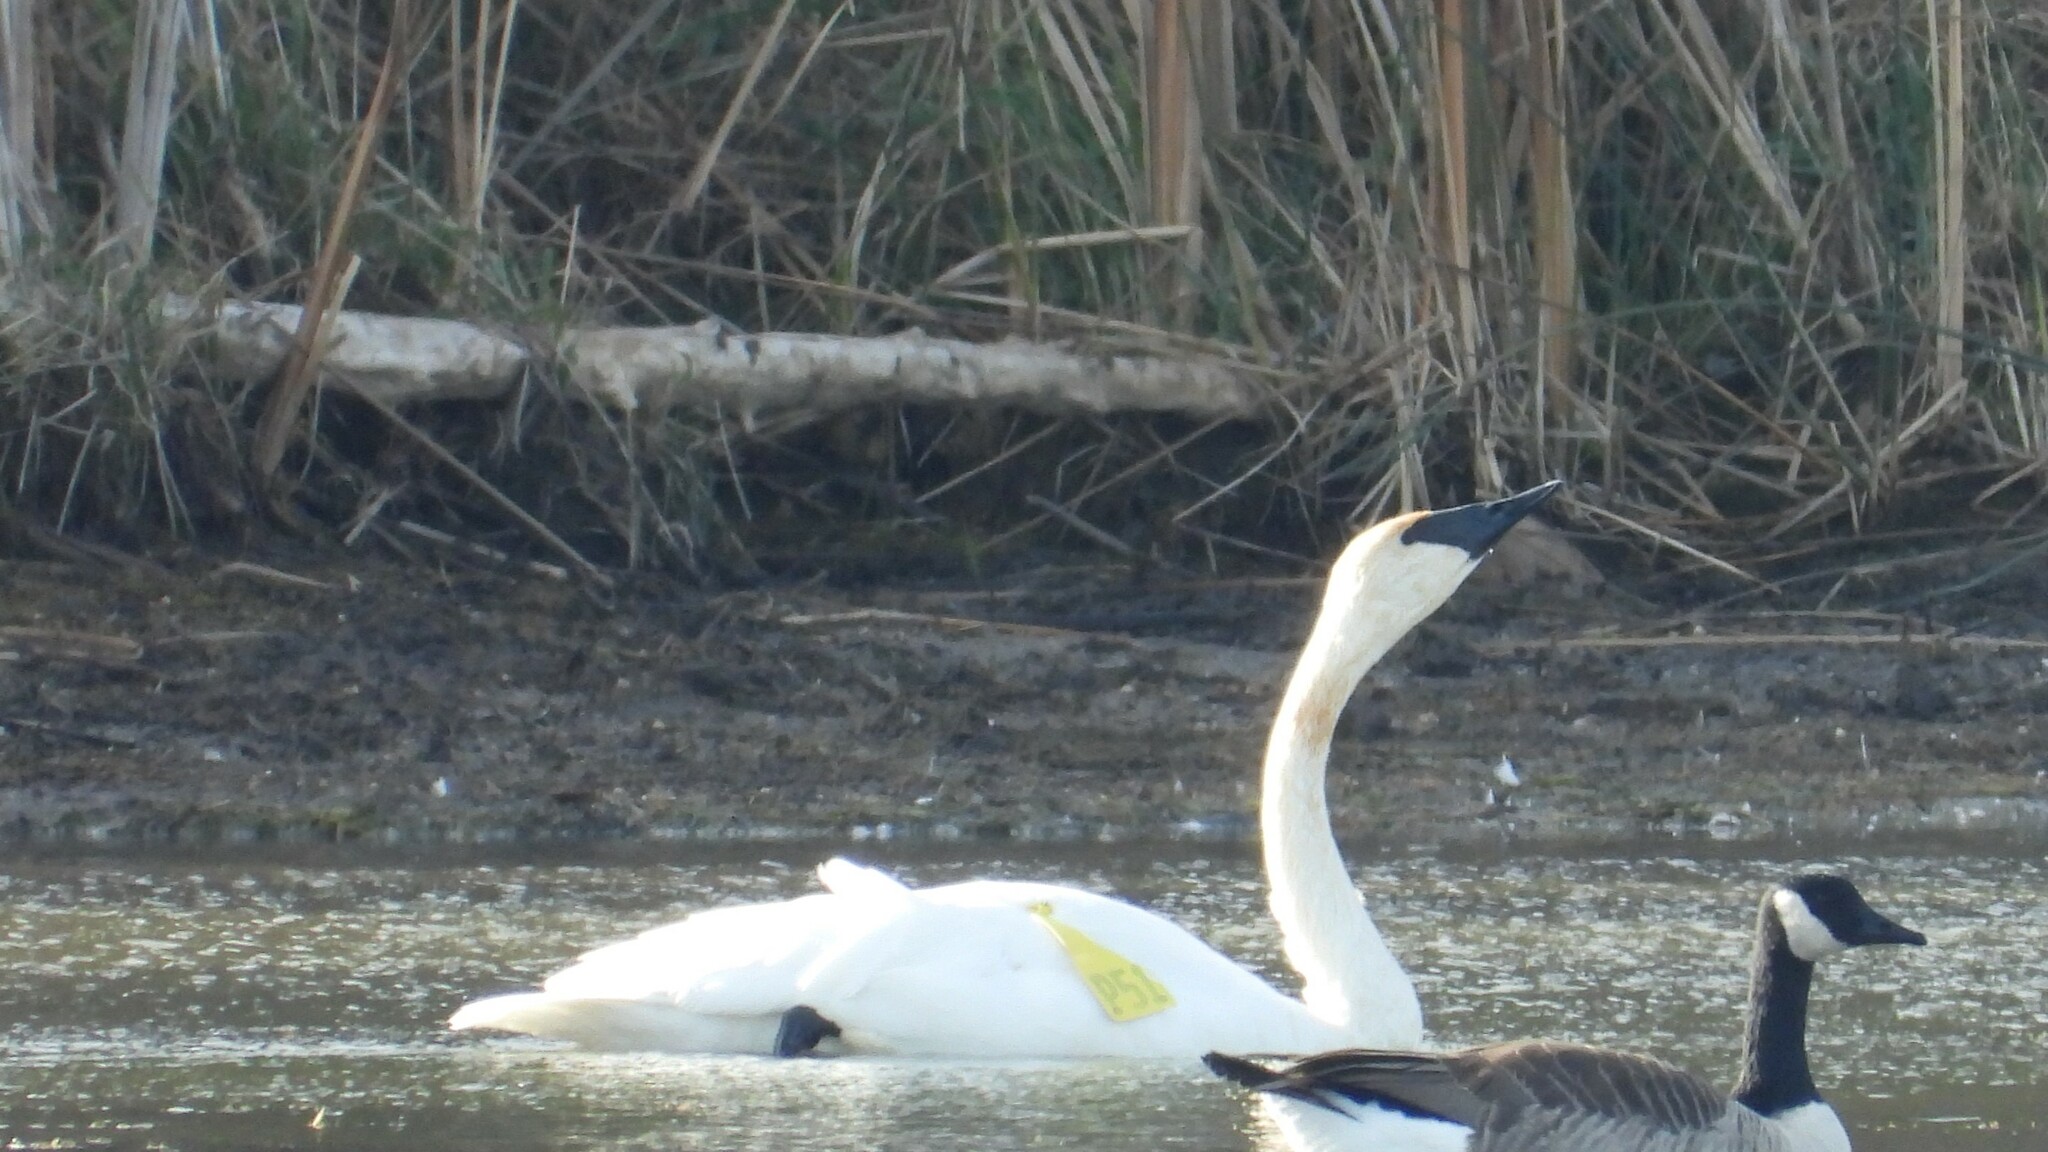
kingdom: Animalia
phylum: Chordata
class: Aves
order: Anseriformes
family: Anatidae
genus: Cygnus
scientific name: Cygnus buccinator
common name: Trumpeter swan
